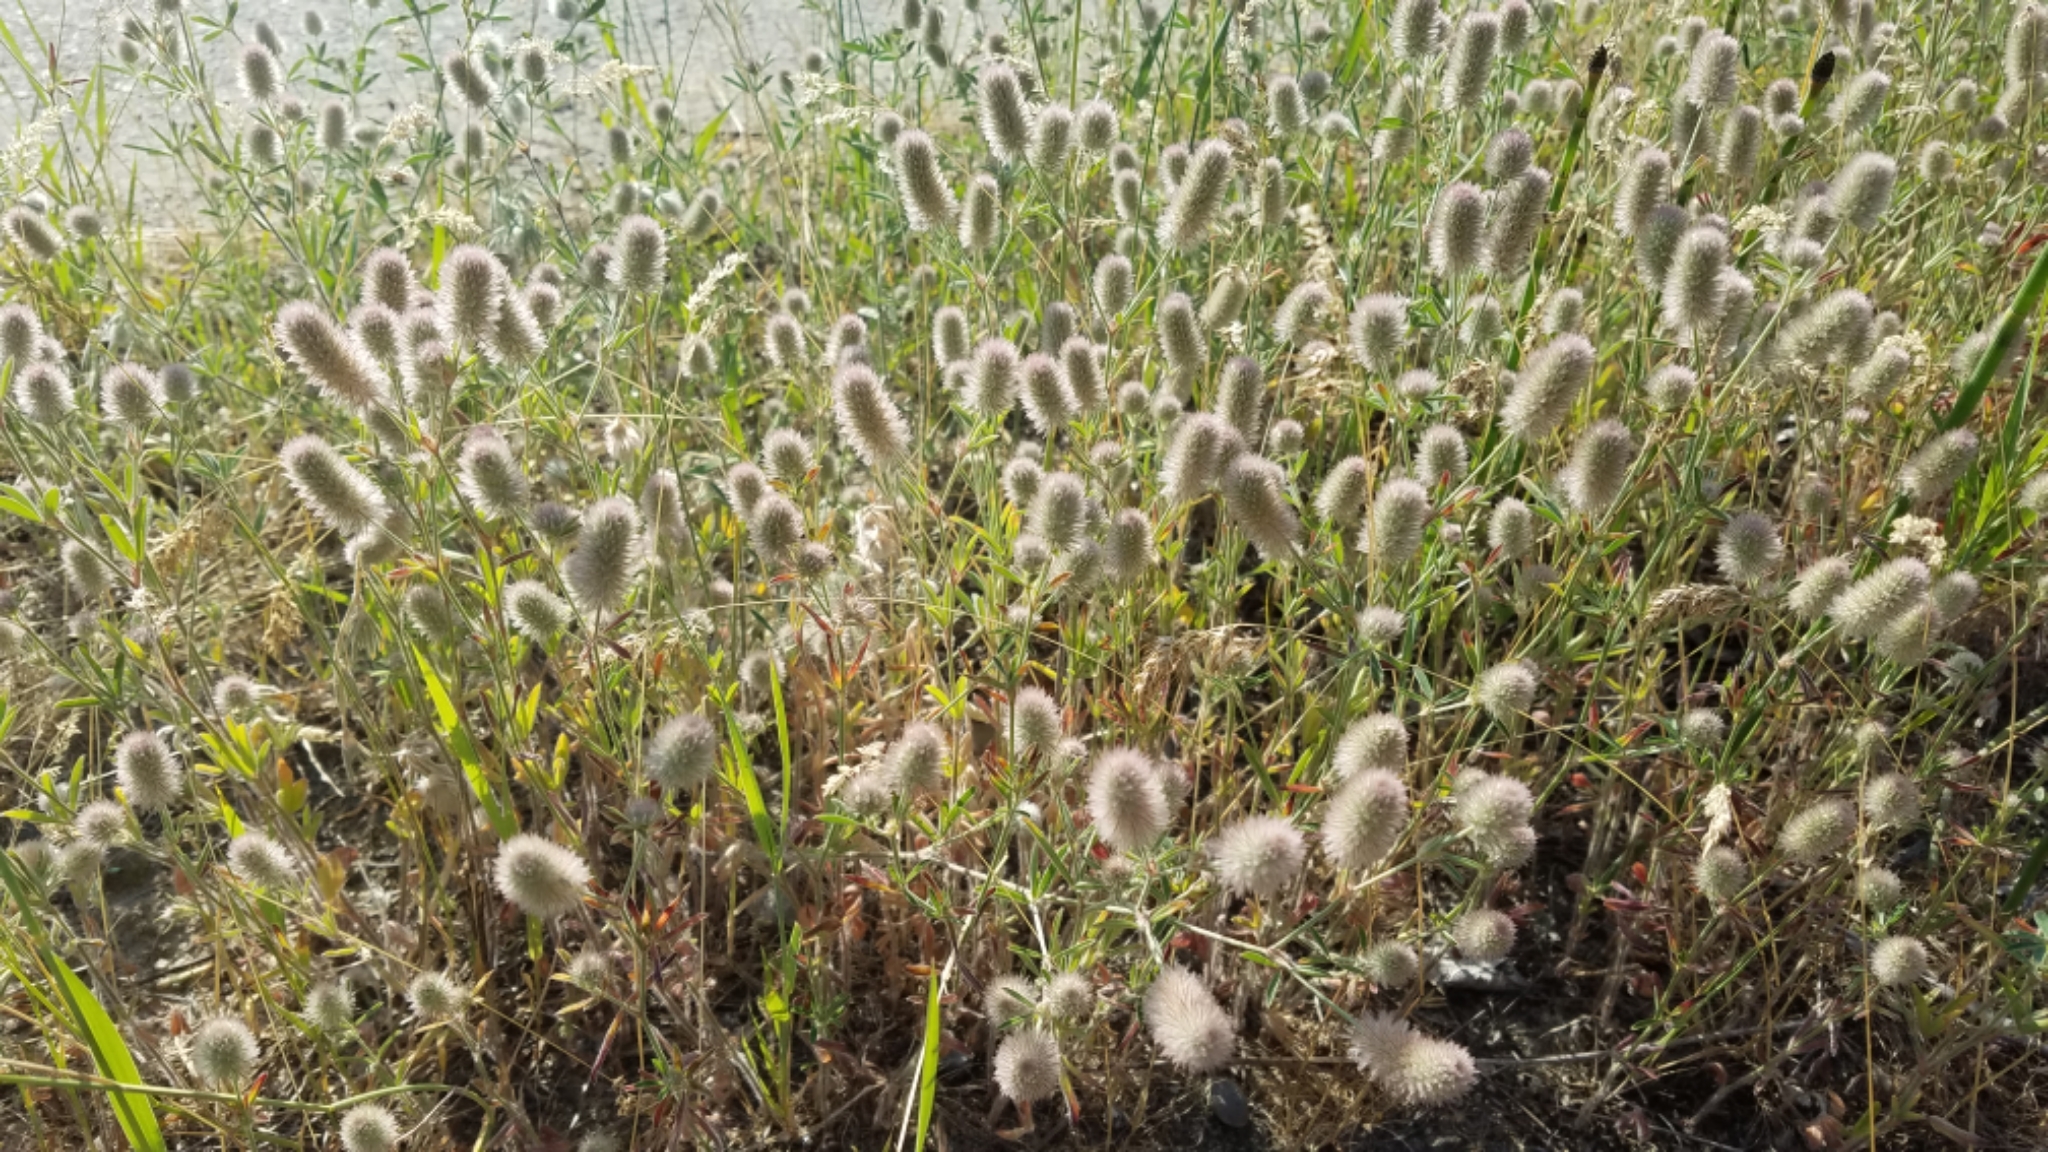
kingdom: Plantae
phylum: Tracheophyta
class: Magnoliopsida
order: Fabales
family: Fabaceae
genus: Trifolium
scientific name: Trifolium arvense
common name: Hare's-foot clover
